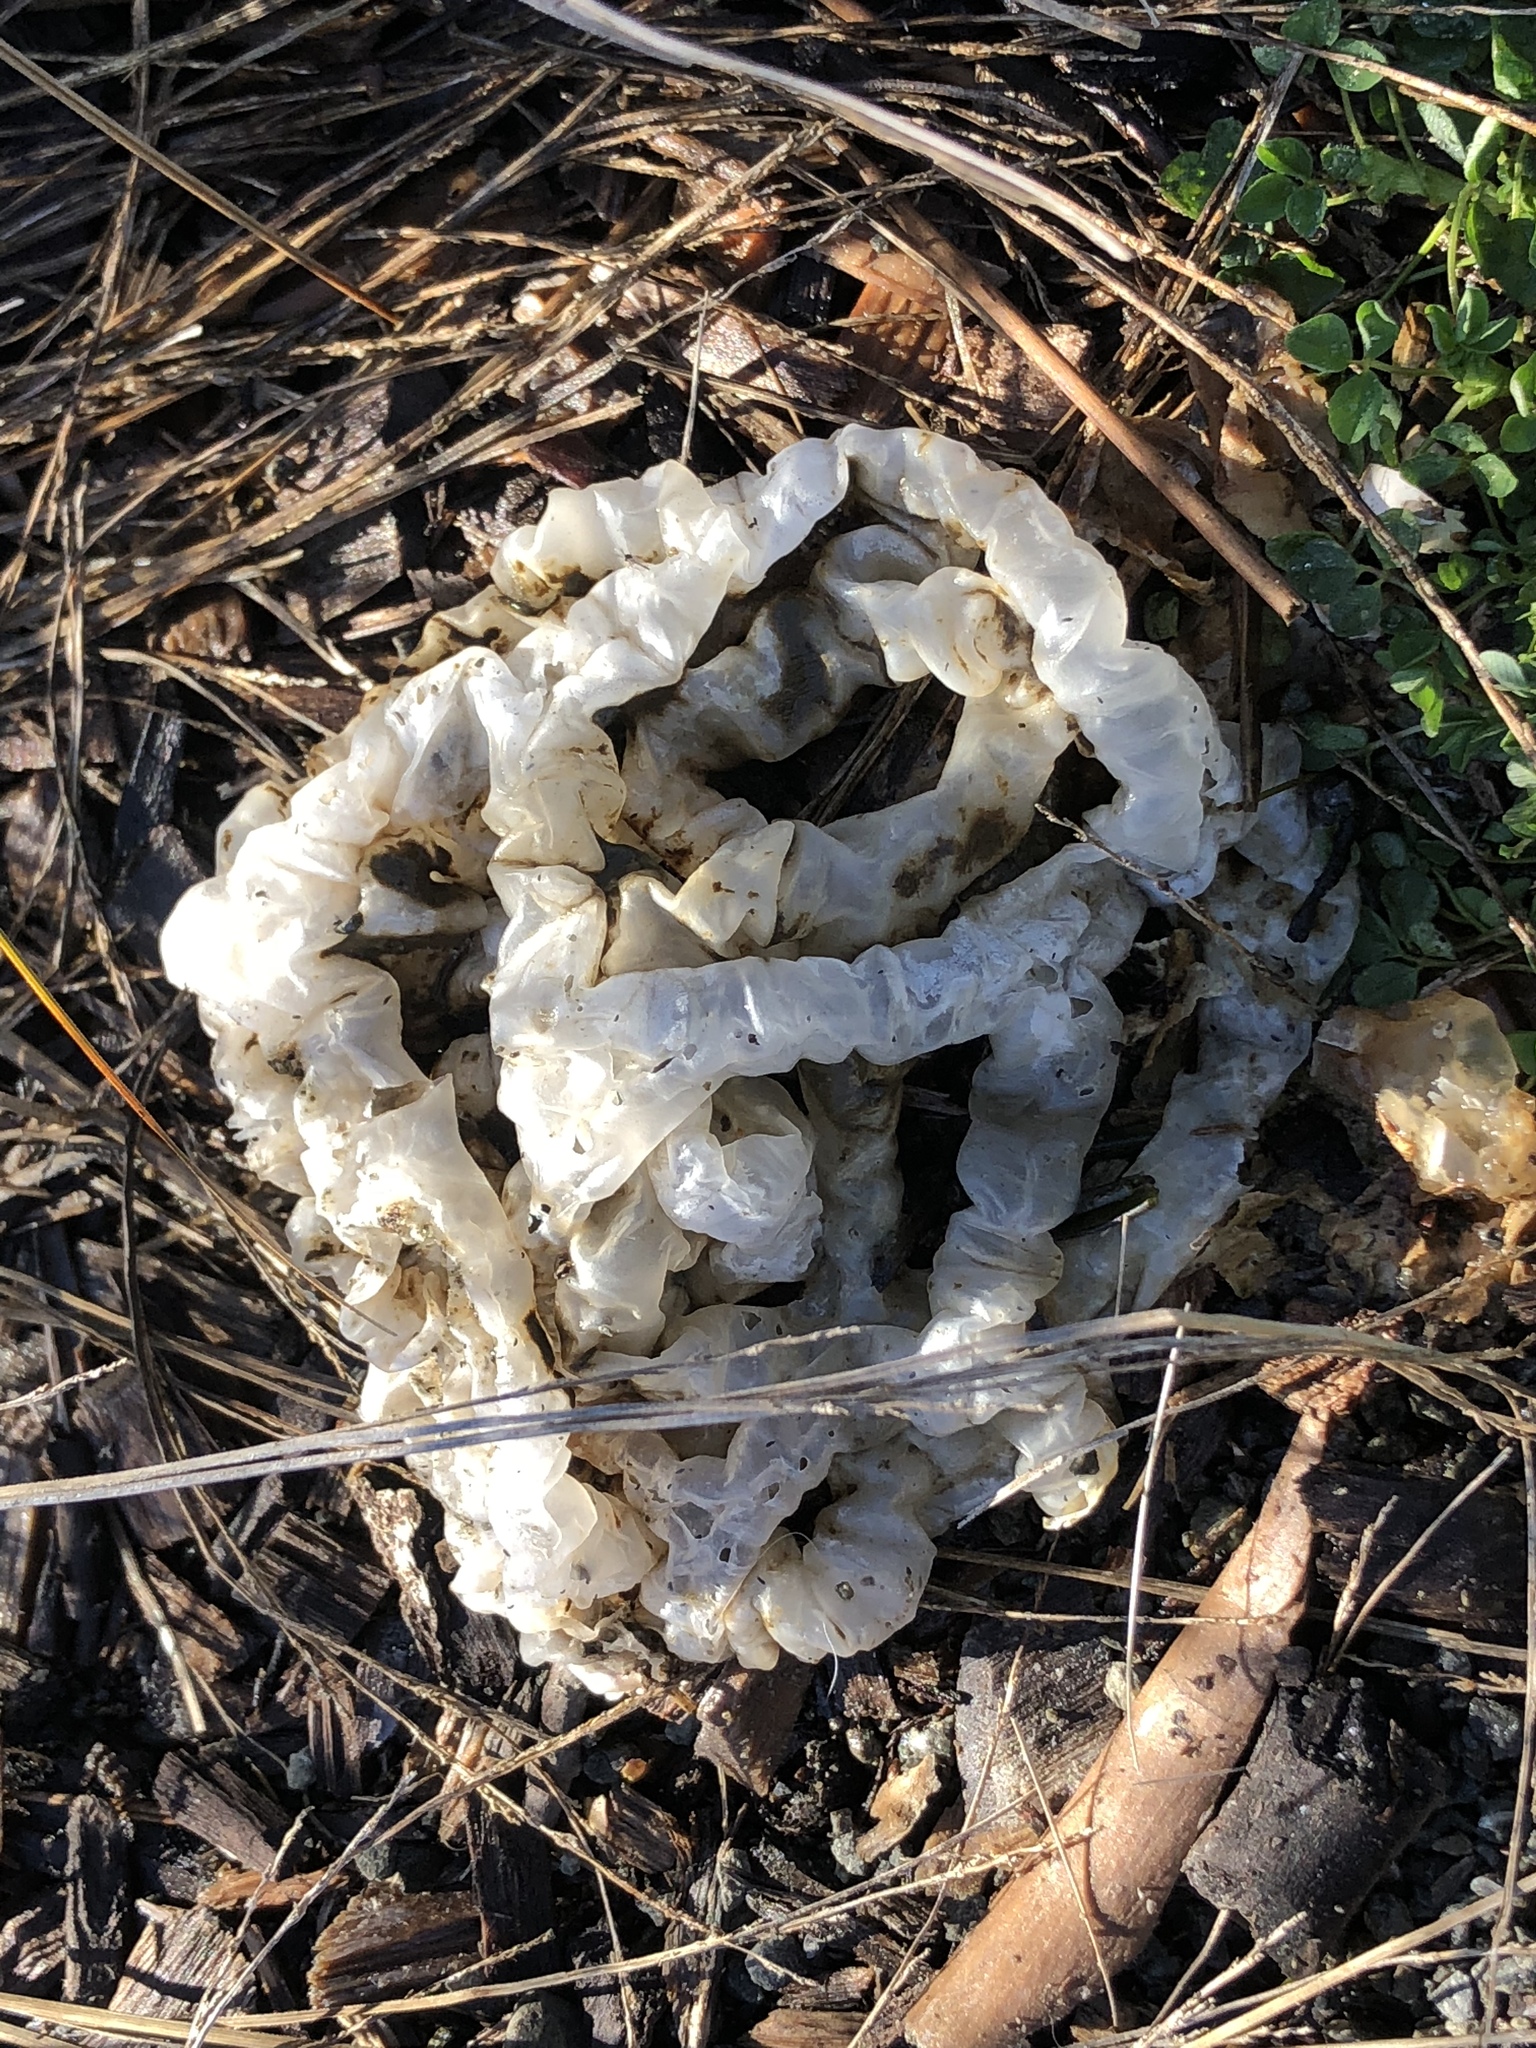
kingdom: Fungi
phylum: Basidiomycota
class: Agaricomycetes
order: Phallales
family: Phallaceae
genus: Ileodictyon
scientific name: Ileodictyon cibarium
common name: Basket fungus
